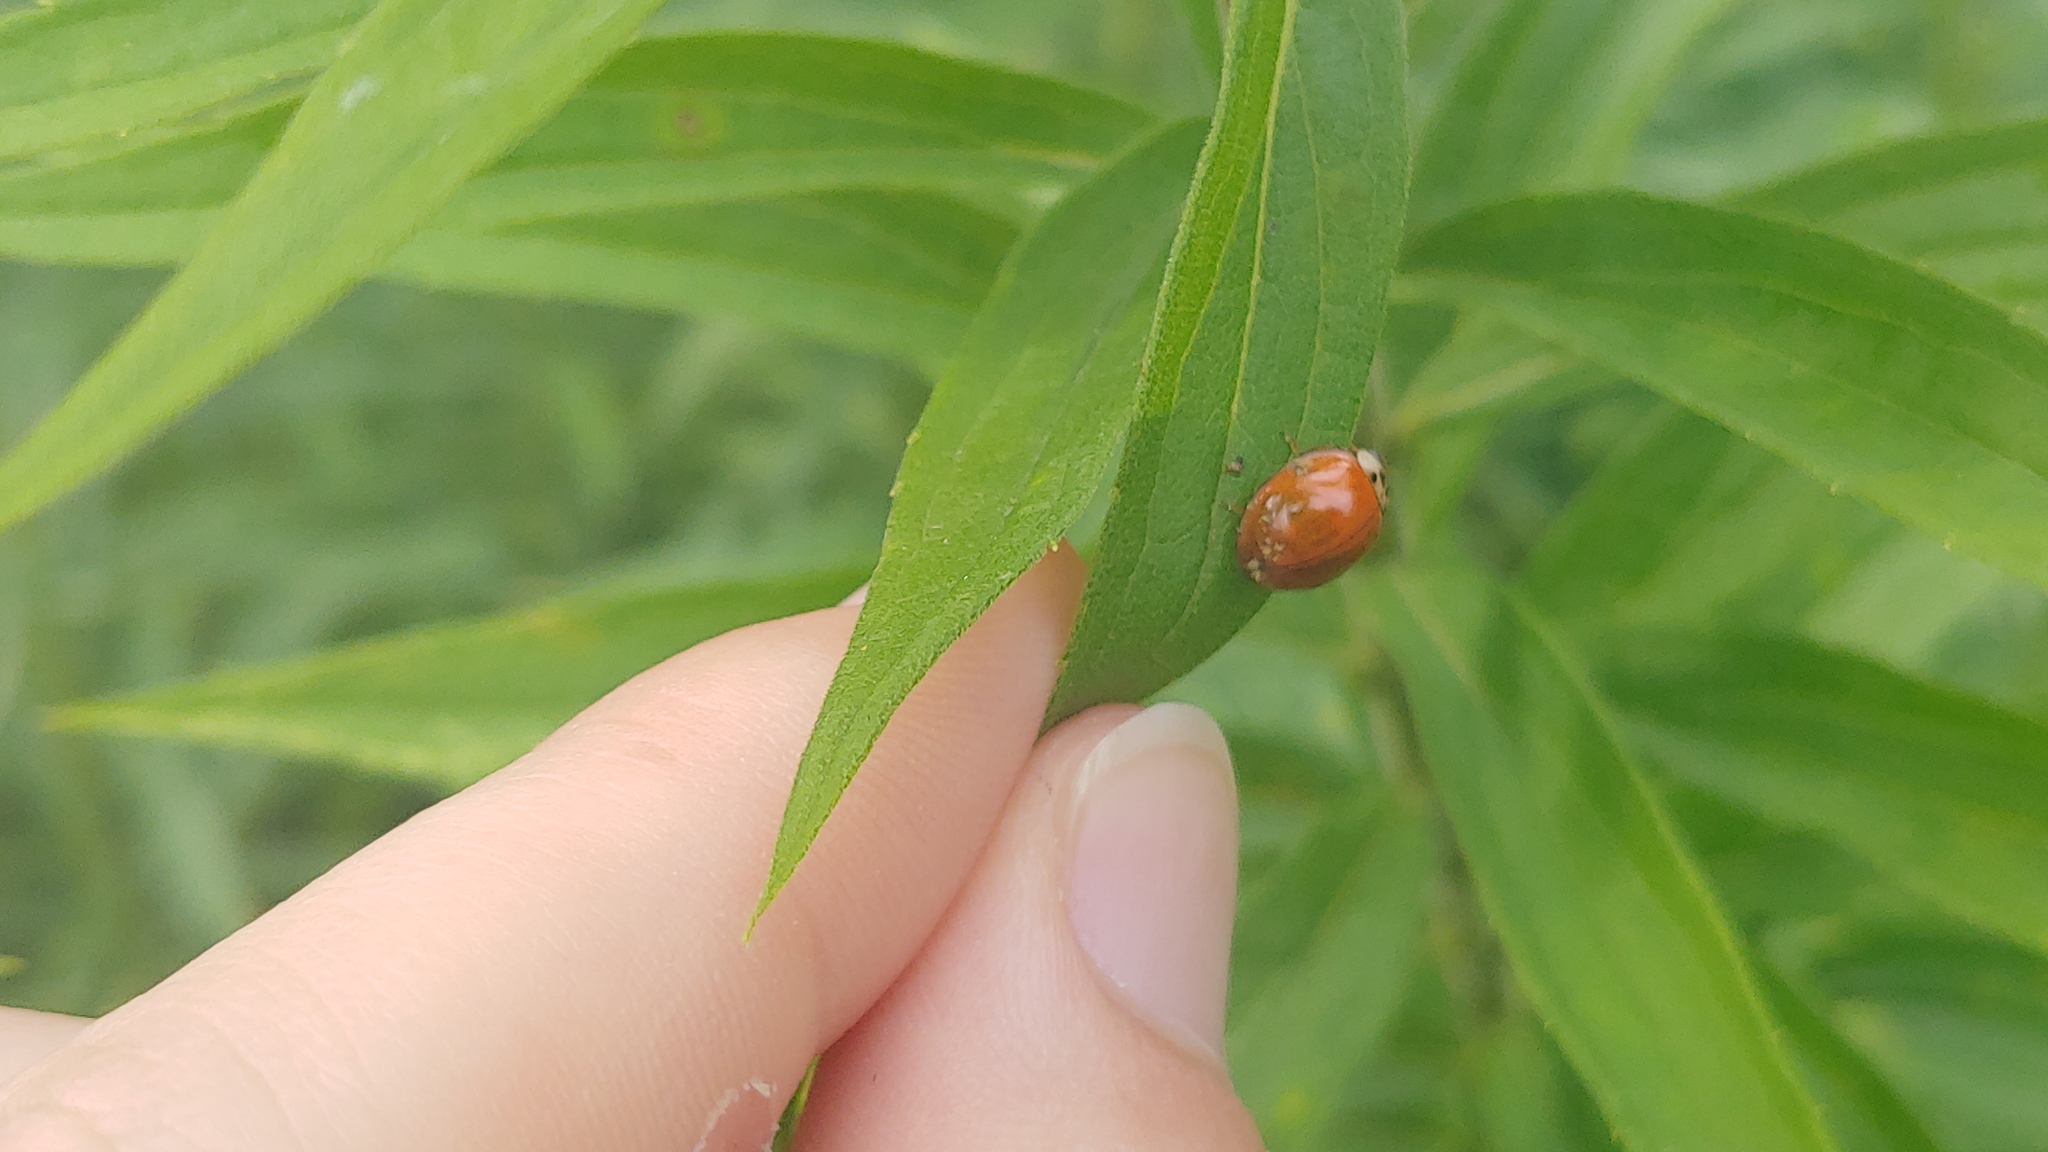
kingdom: Animalia
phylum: Arthropoda
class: Insecta
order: Coleoptera
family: Coccinellidae
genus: Harmonia
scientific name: Harmonia axyridis
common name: Harlequin ladybird
